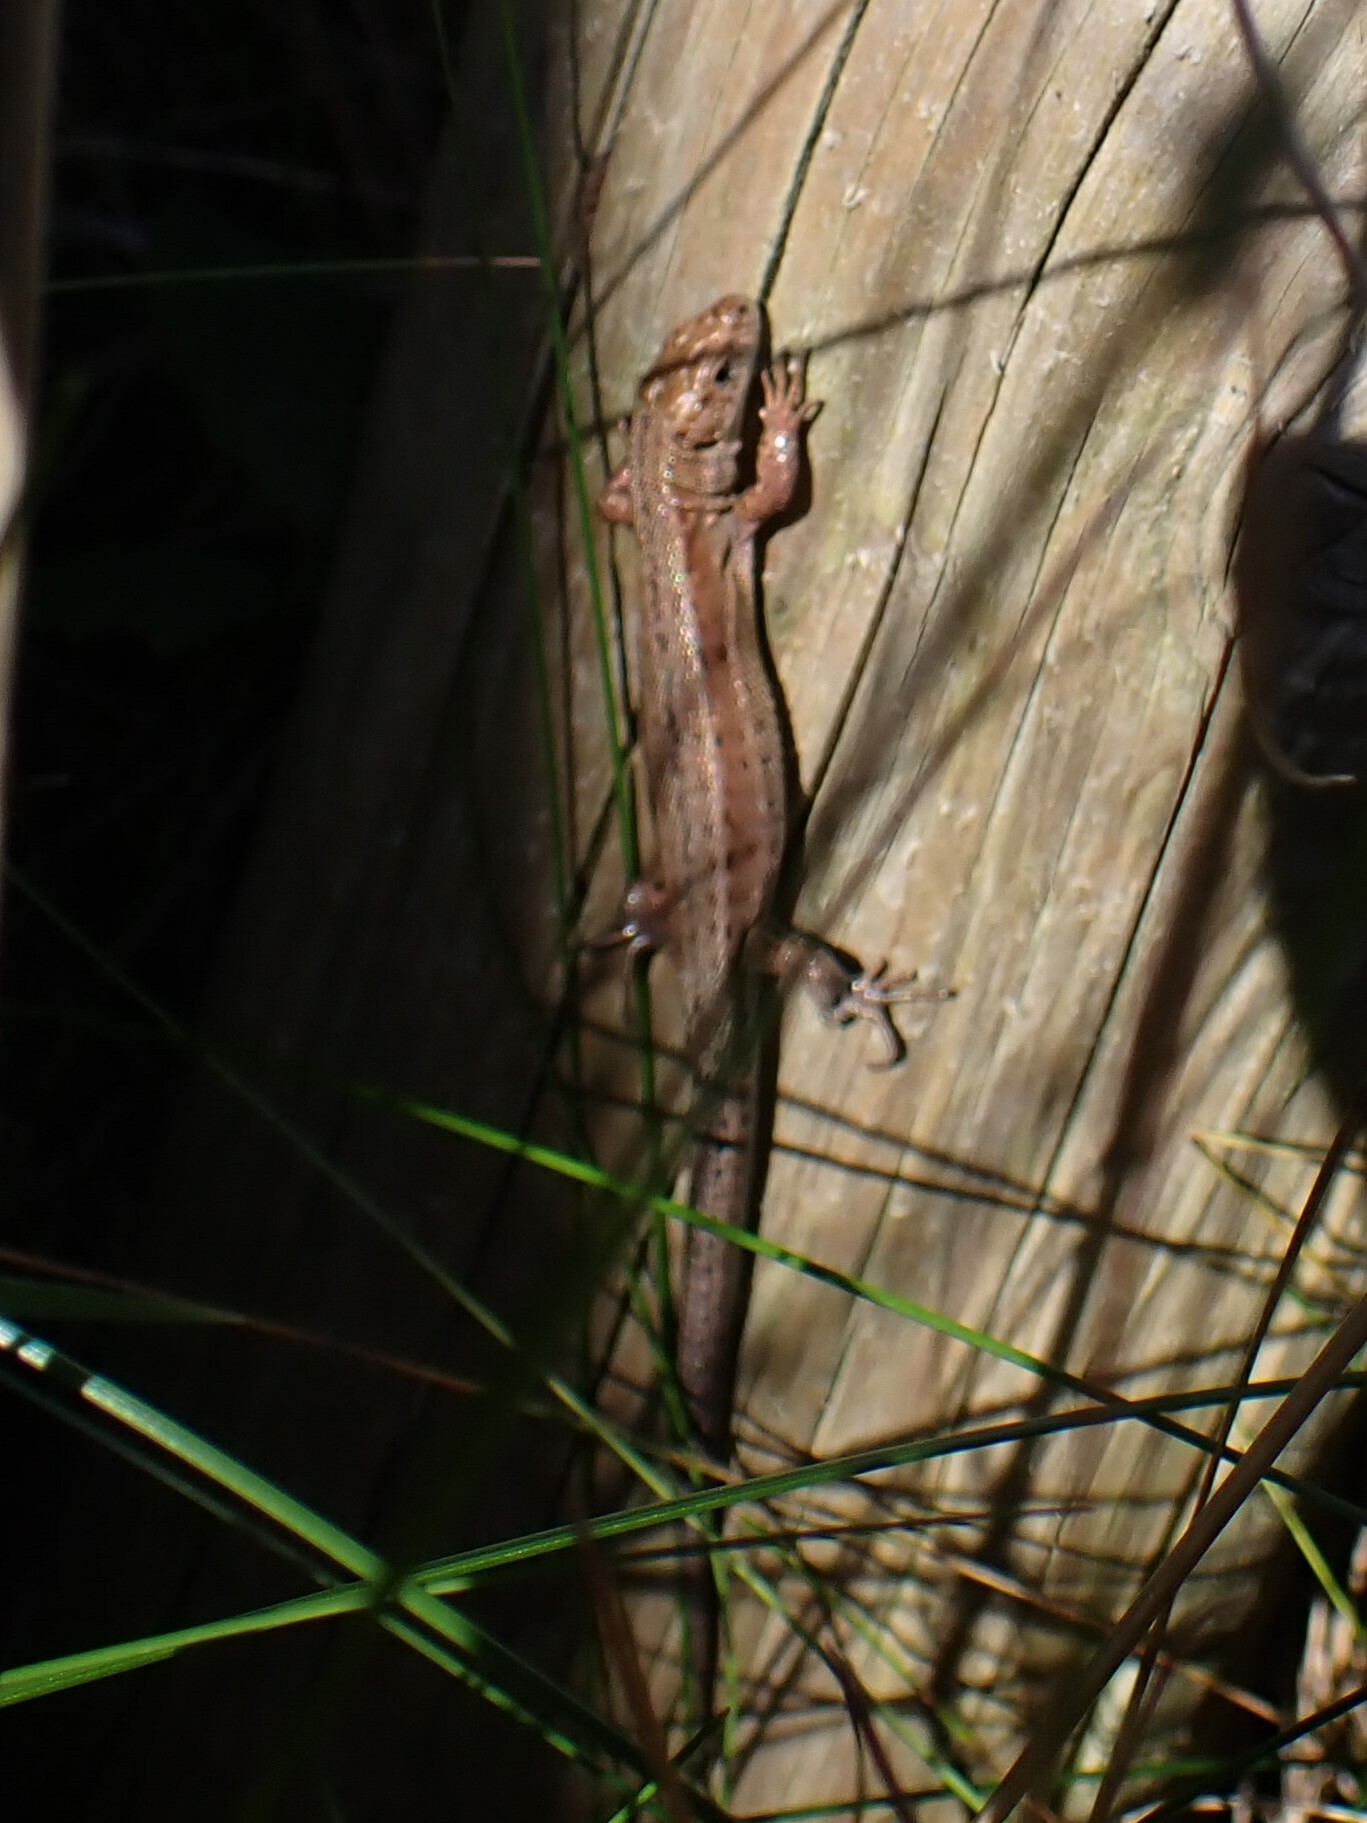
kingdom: Animalia
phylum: Chordata
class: Squamata
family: Lacertidae
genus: Zootoca
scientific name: Zootoca vivipara
